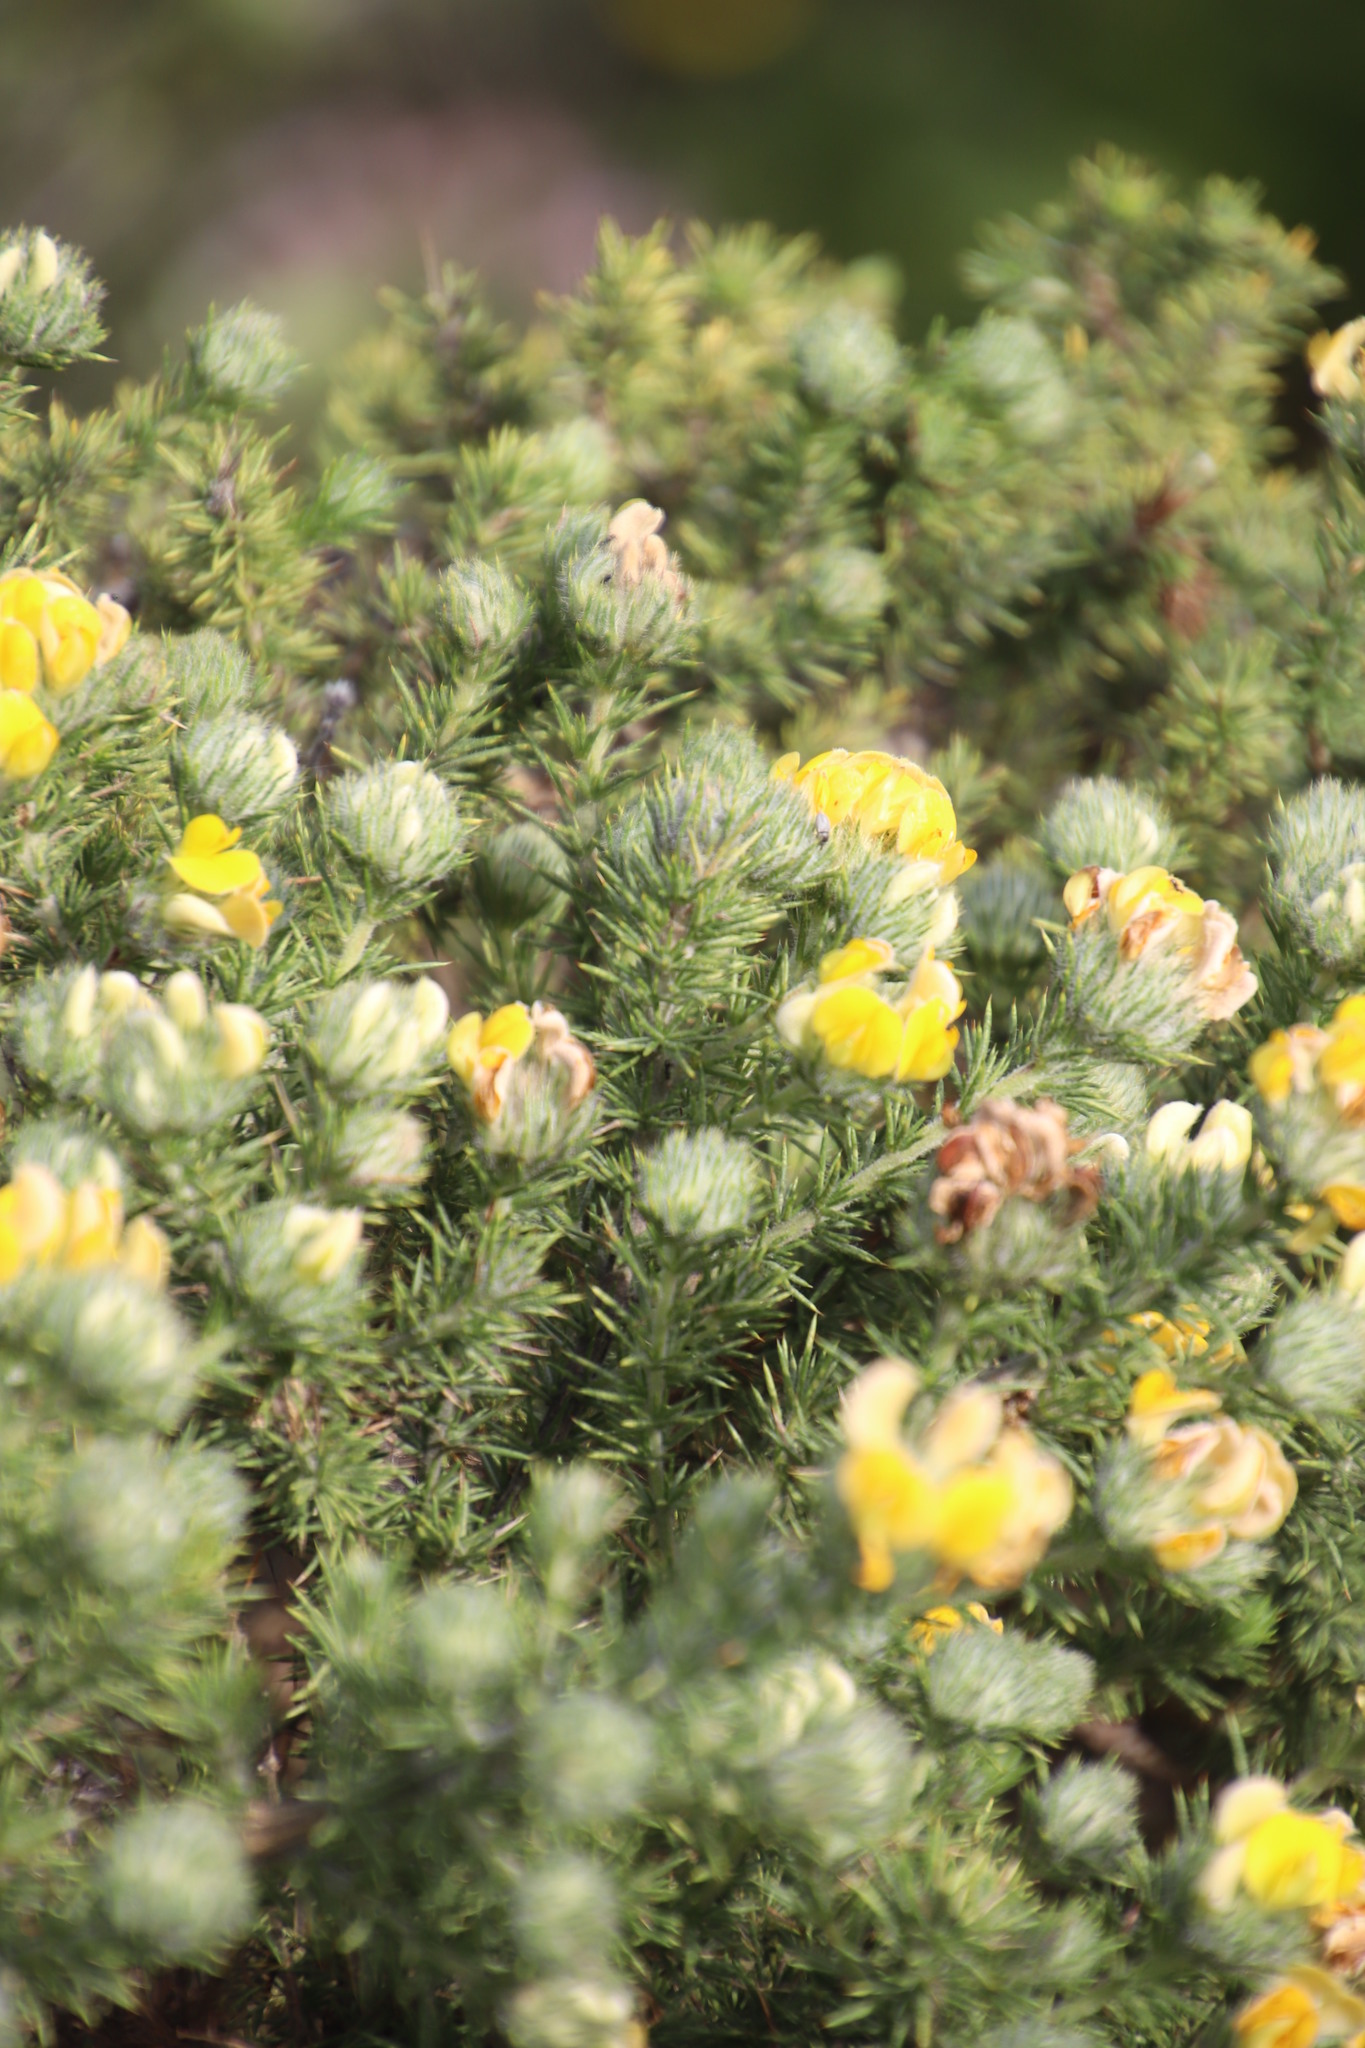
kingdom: Plantae
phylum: Tracheophyta
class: Magnoliopsida
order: Fabales
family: Fabaceae
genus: Aspalathus
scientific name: Aspalathus chenopoda
